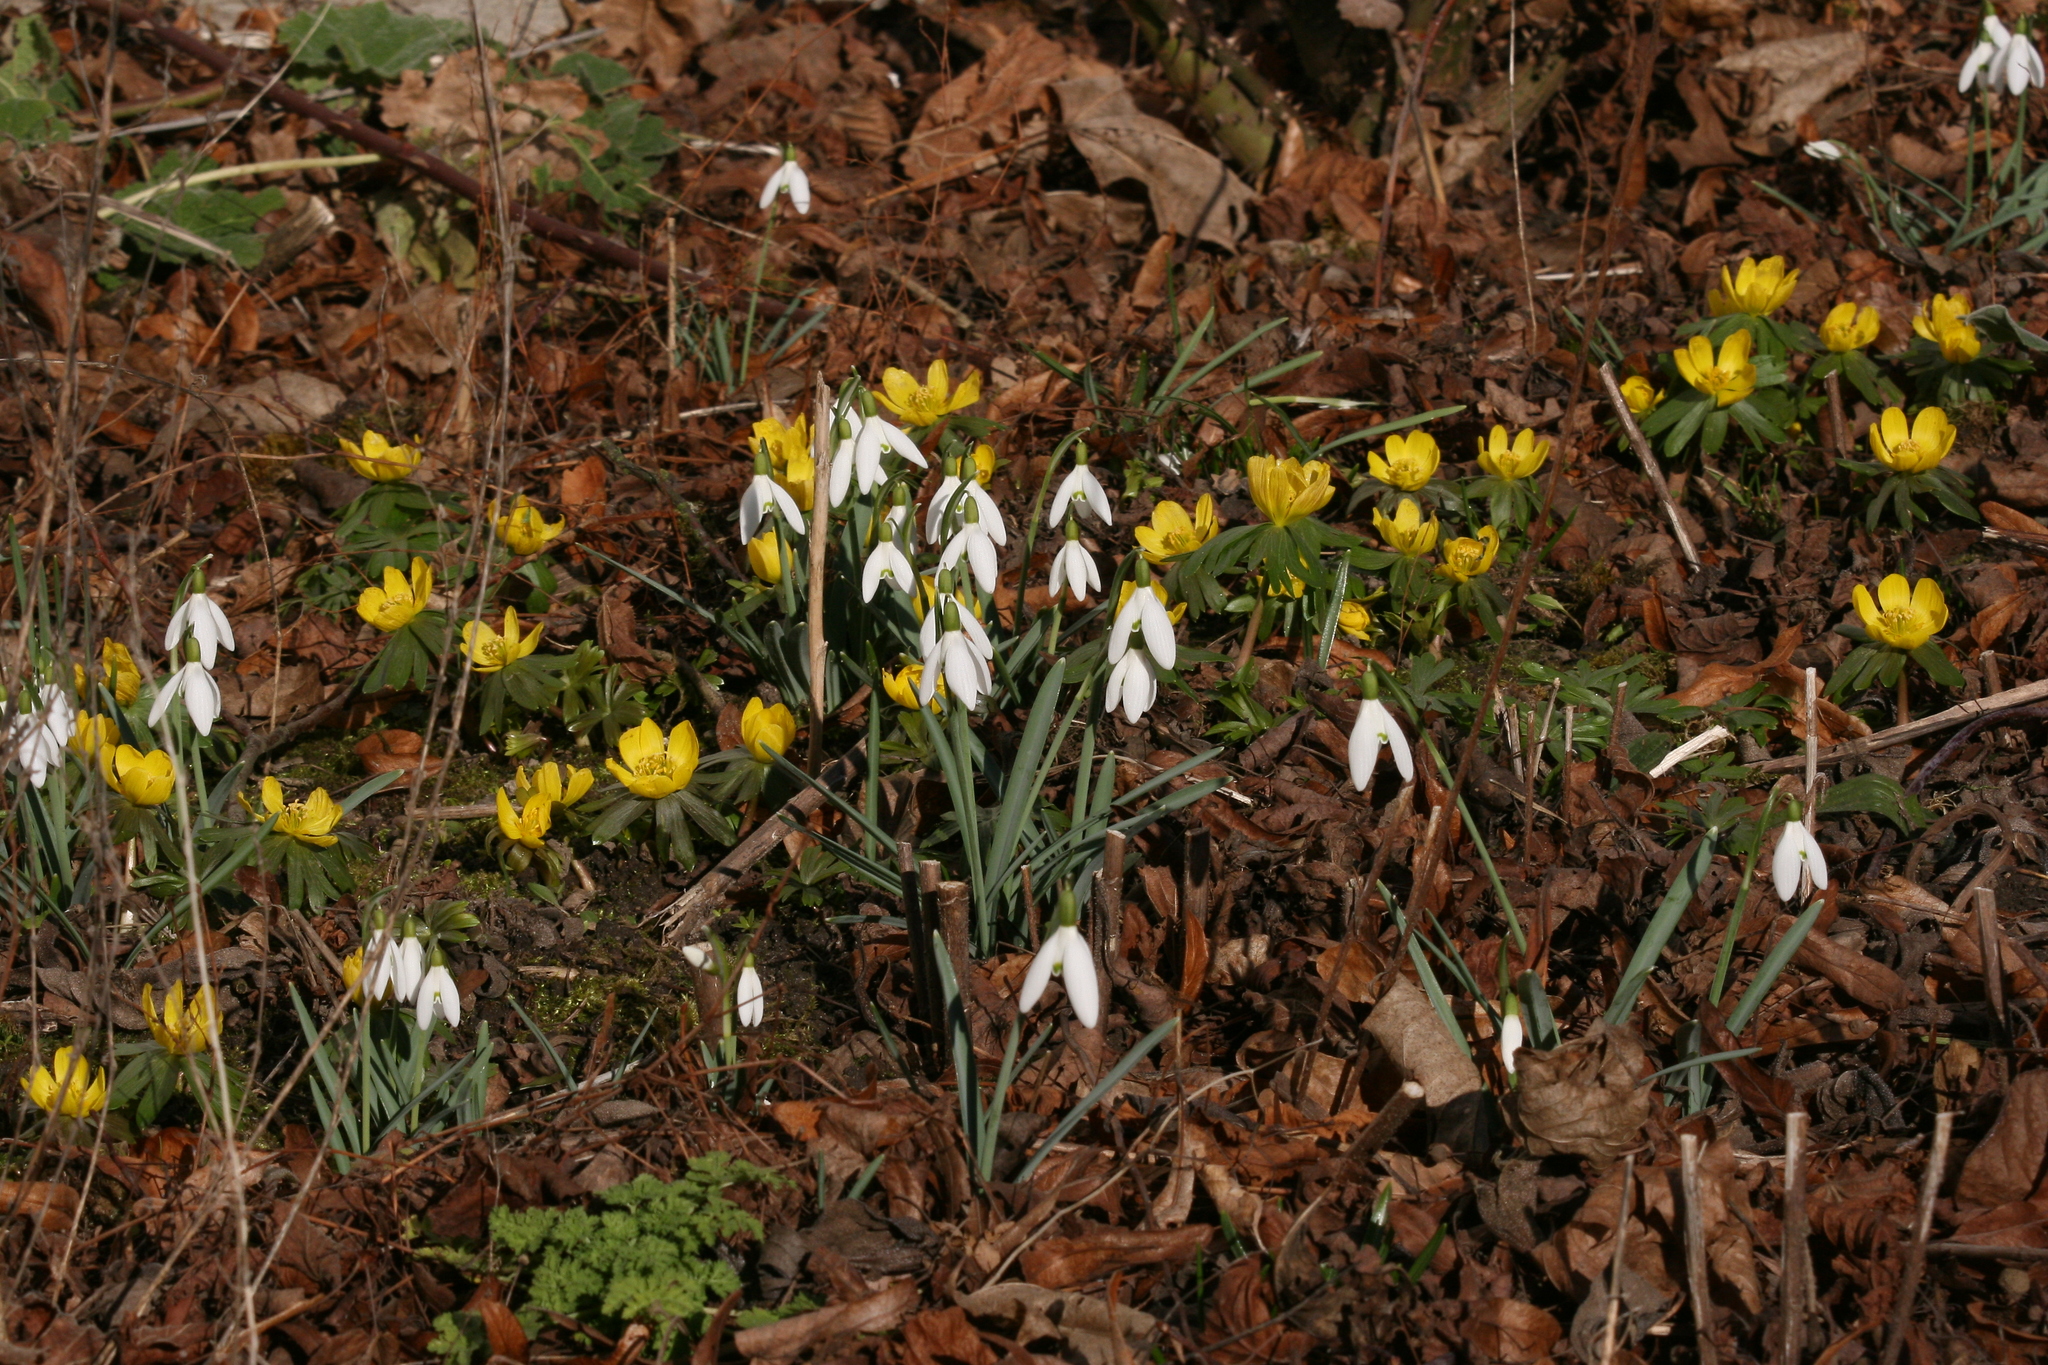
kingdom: Plantae
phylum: Tracheophyta
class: Liliopsida
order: Asparagales
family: Amaryllidaceae
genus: Galanthus
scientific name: Galanthus nivalis
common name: Snowdrop
